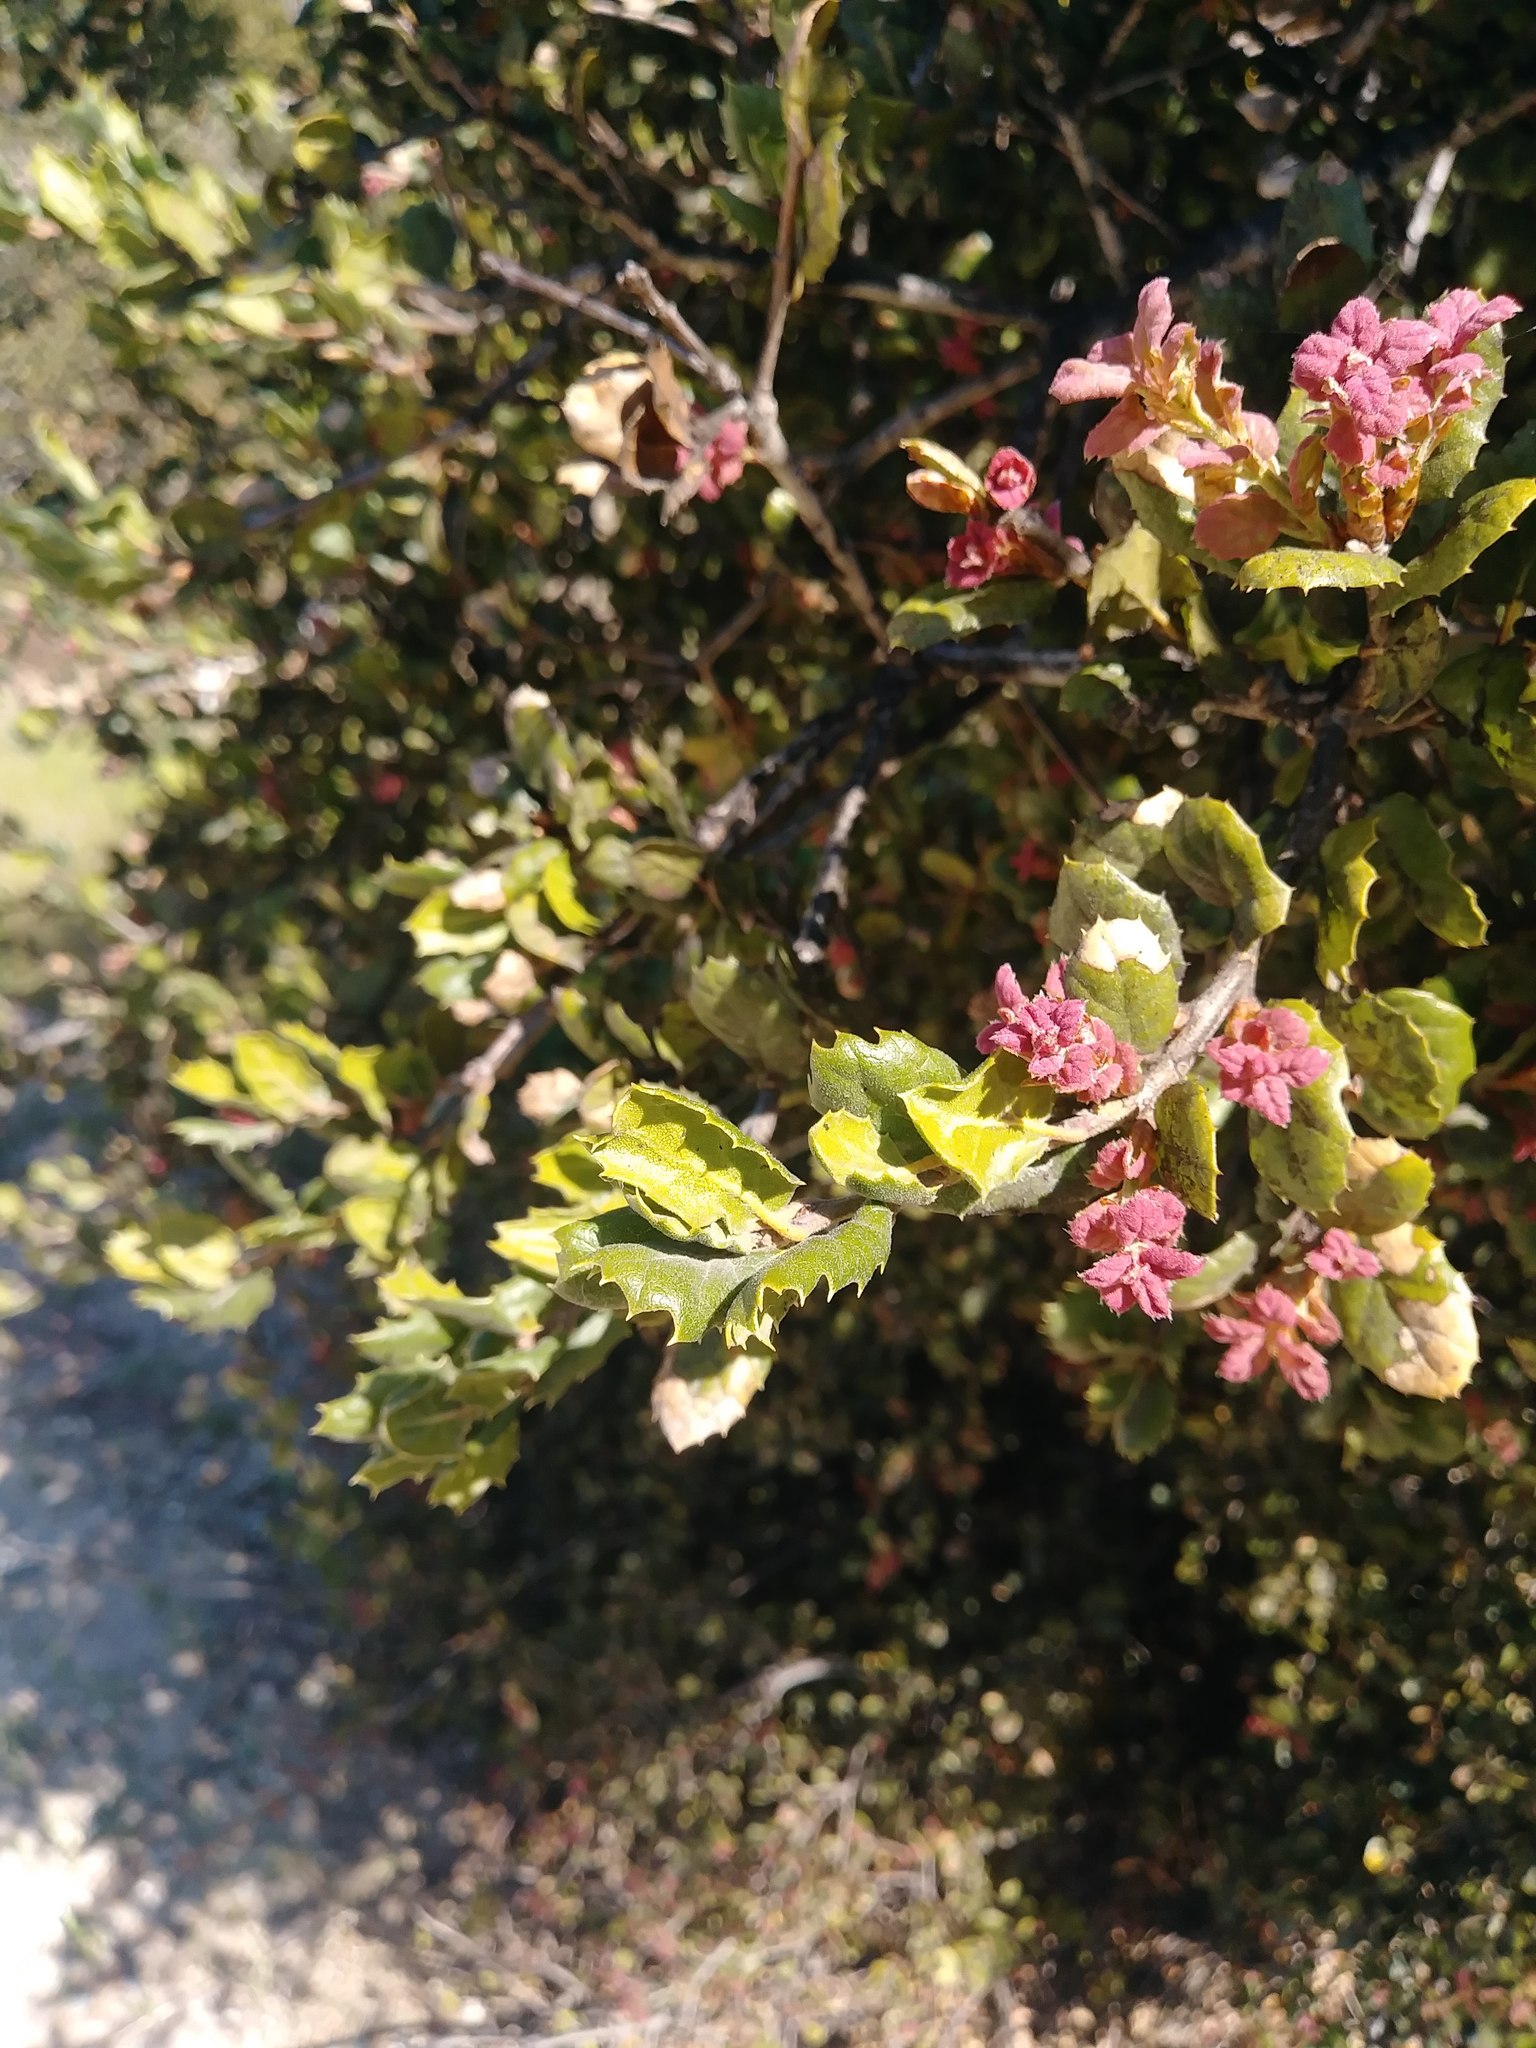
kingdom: Plantae
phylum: Tracheophyta
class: Magnoliopsida
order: Fagales
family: Fagaceae
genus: Quercus
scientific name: Quercus agrifolia
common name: California live oak
